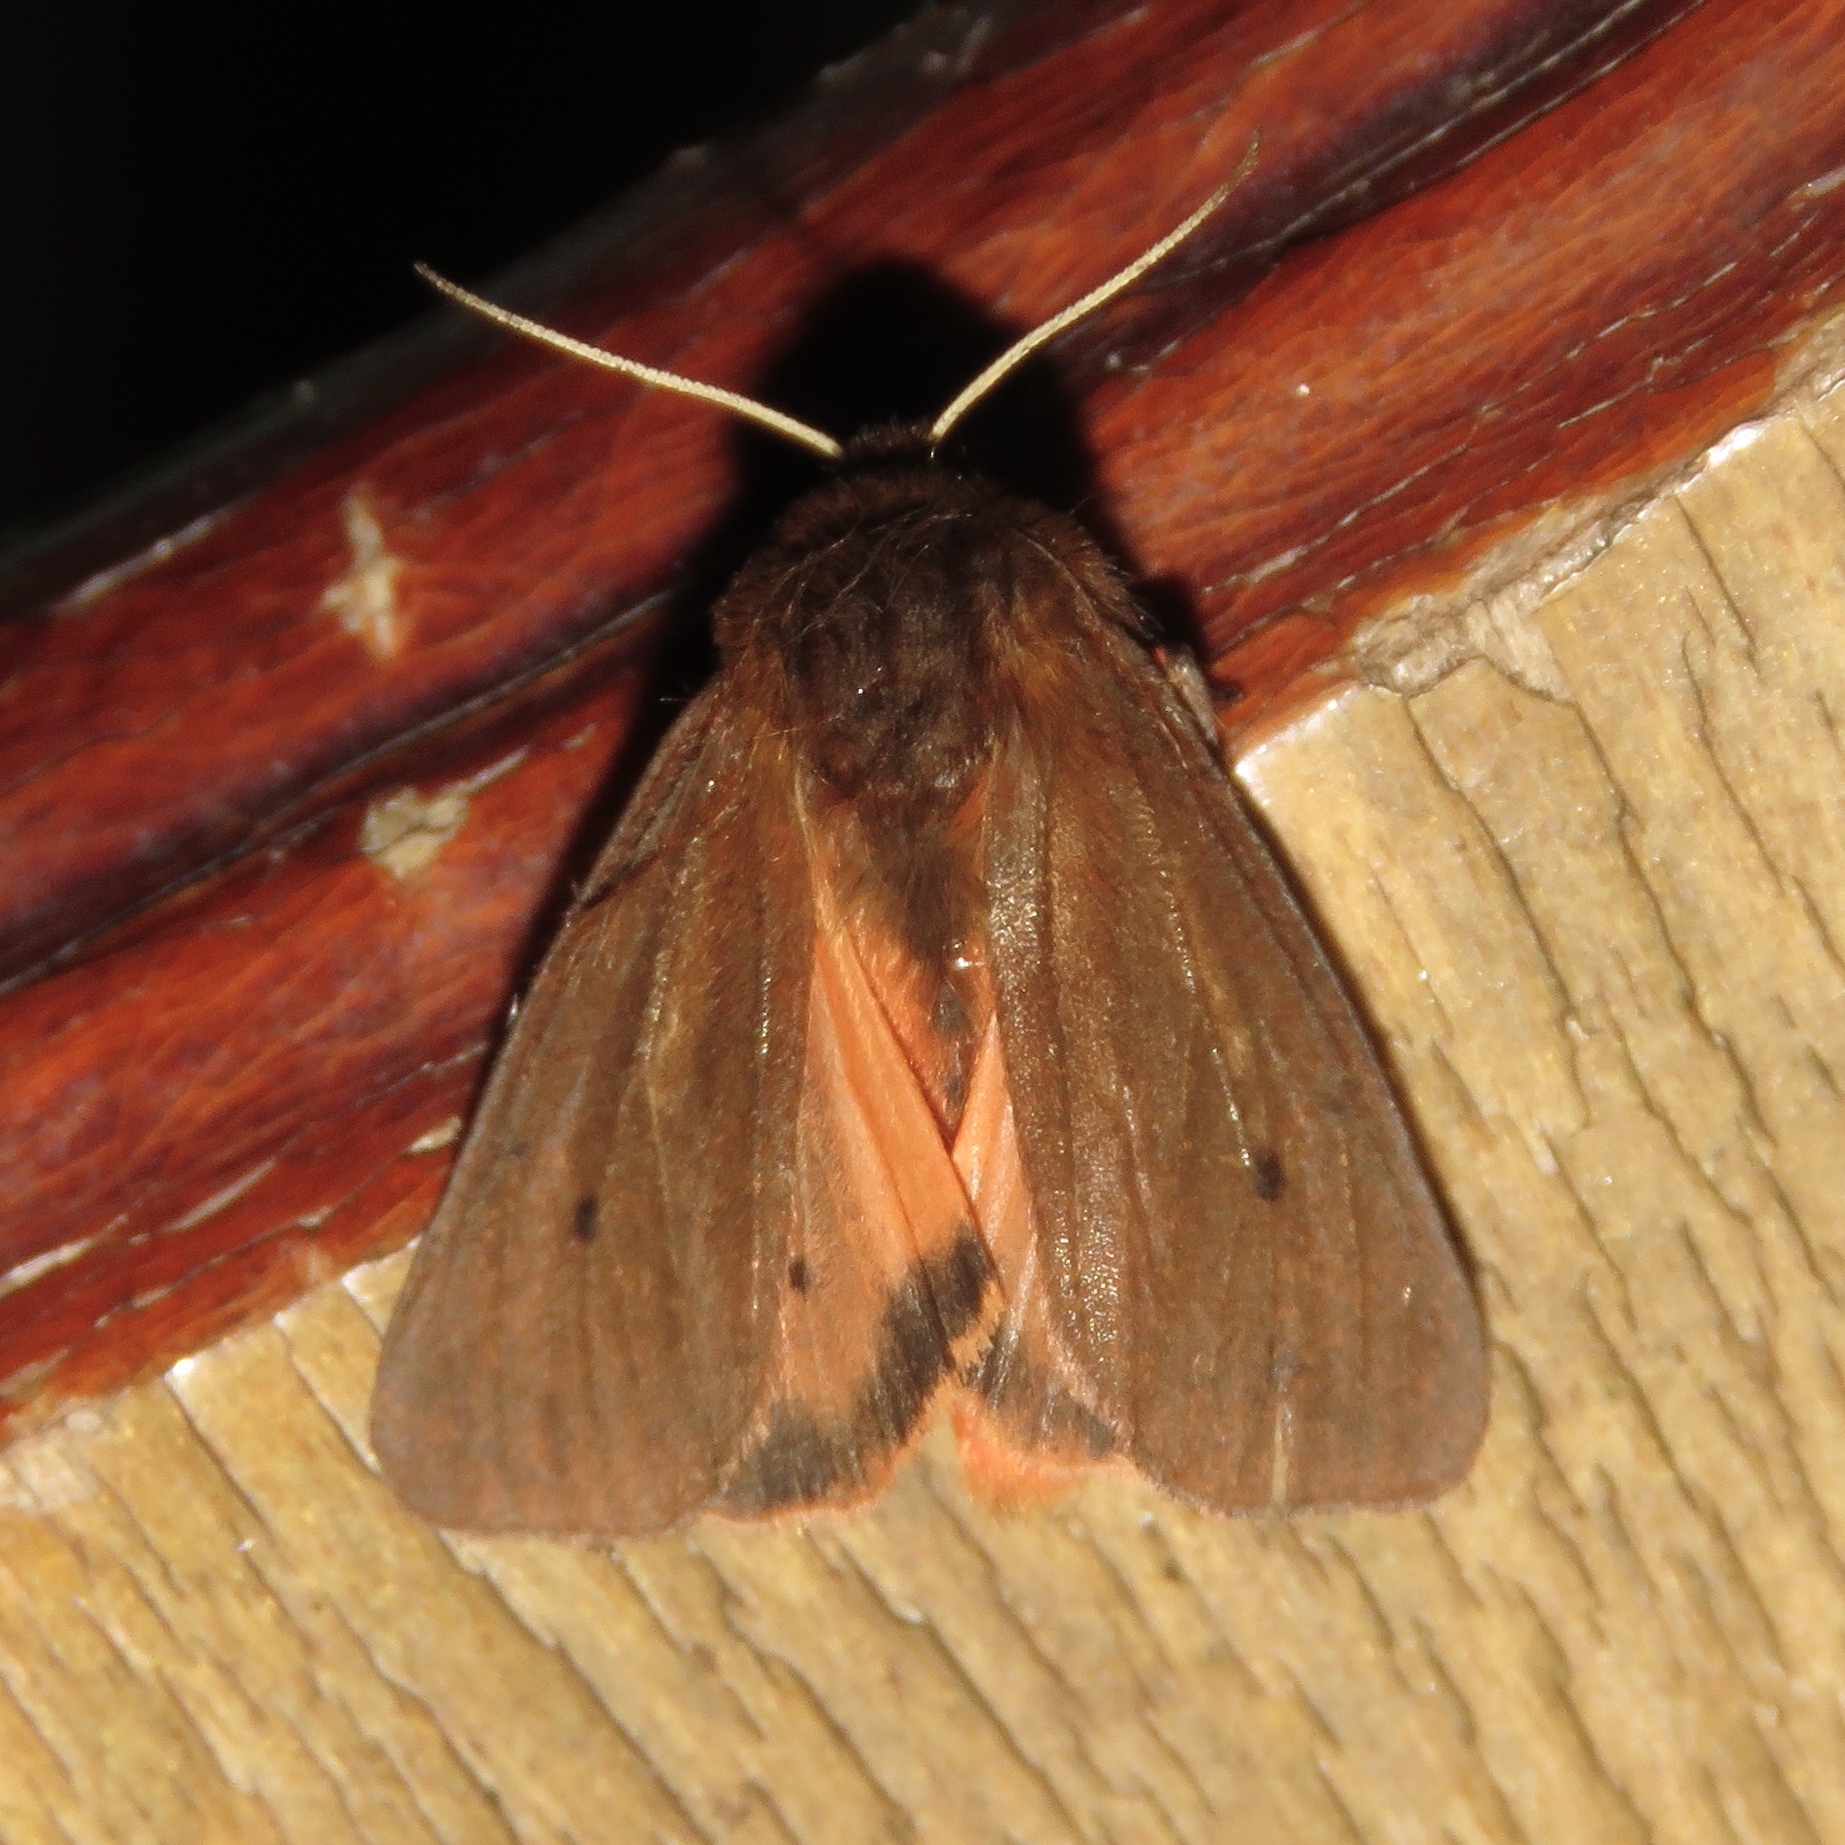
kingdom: Animalia
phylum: Arthropoda
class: Insecta
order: Lepidoptera
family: Erebidae
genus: Phragmatobia
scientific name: Phragmatobia fuliginosa
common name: Ruby tiger
